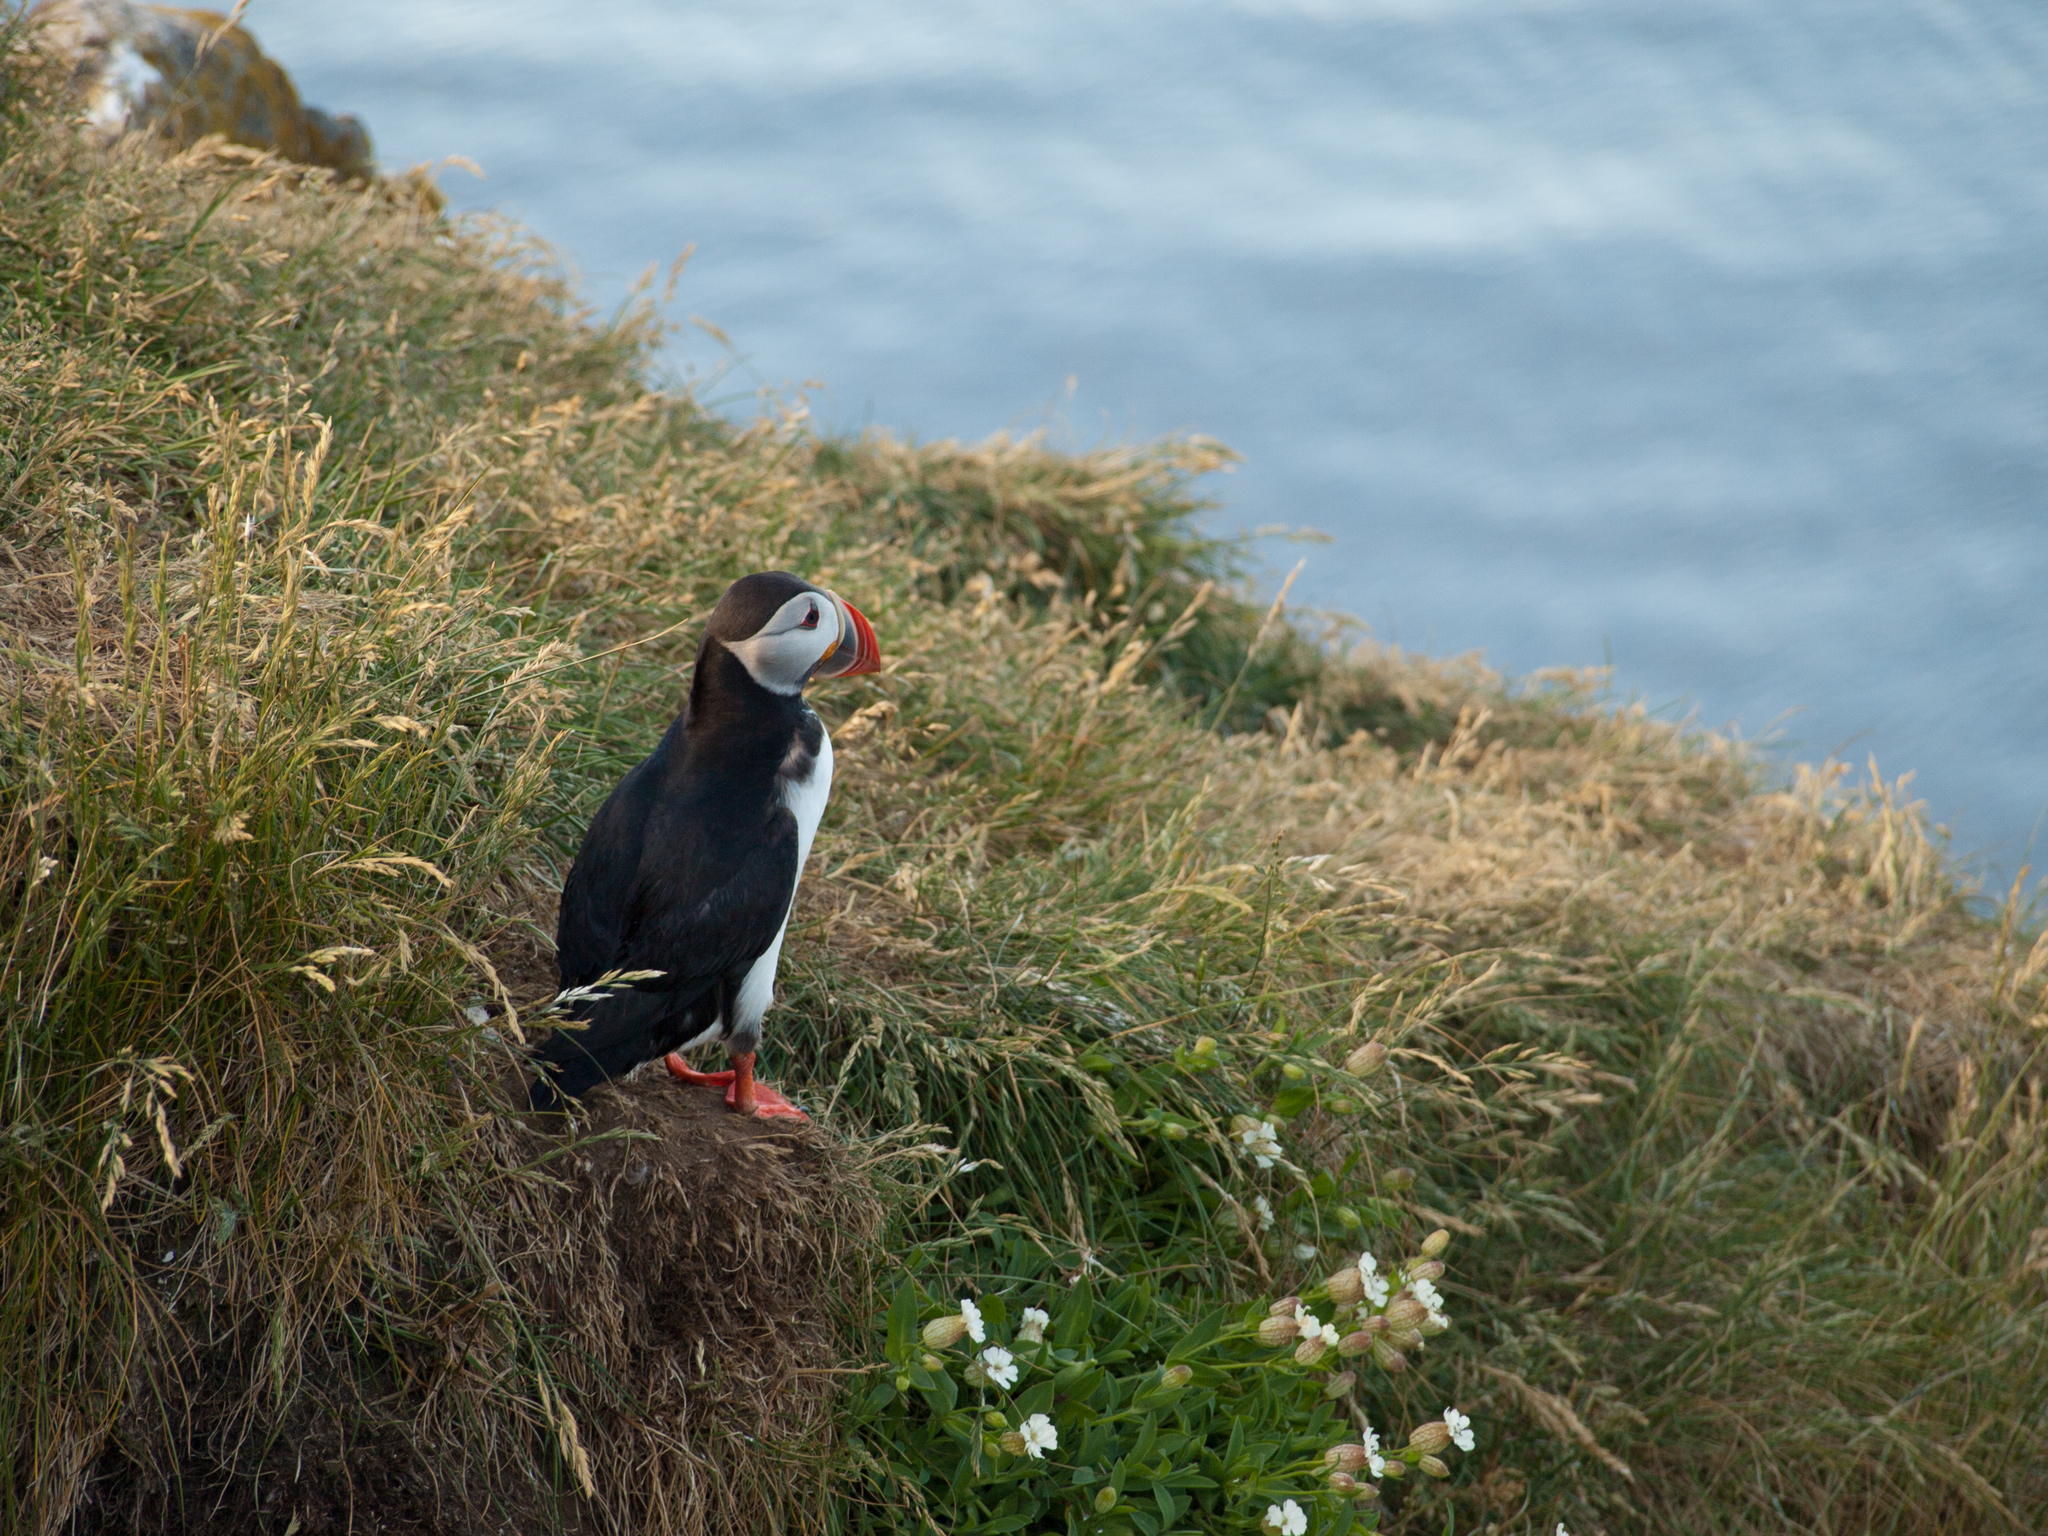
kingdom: Animalia
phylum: Chordata
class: Aves
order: Charadriiformes
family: Alcidae
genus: Fratercula
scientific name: Fratercula arctica
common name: Atlantic puffin
